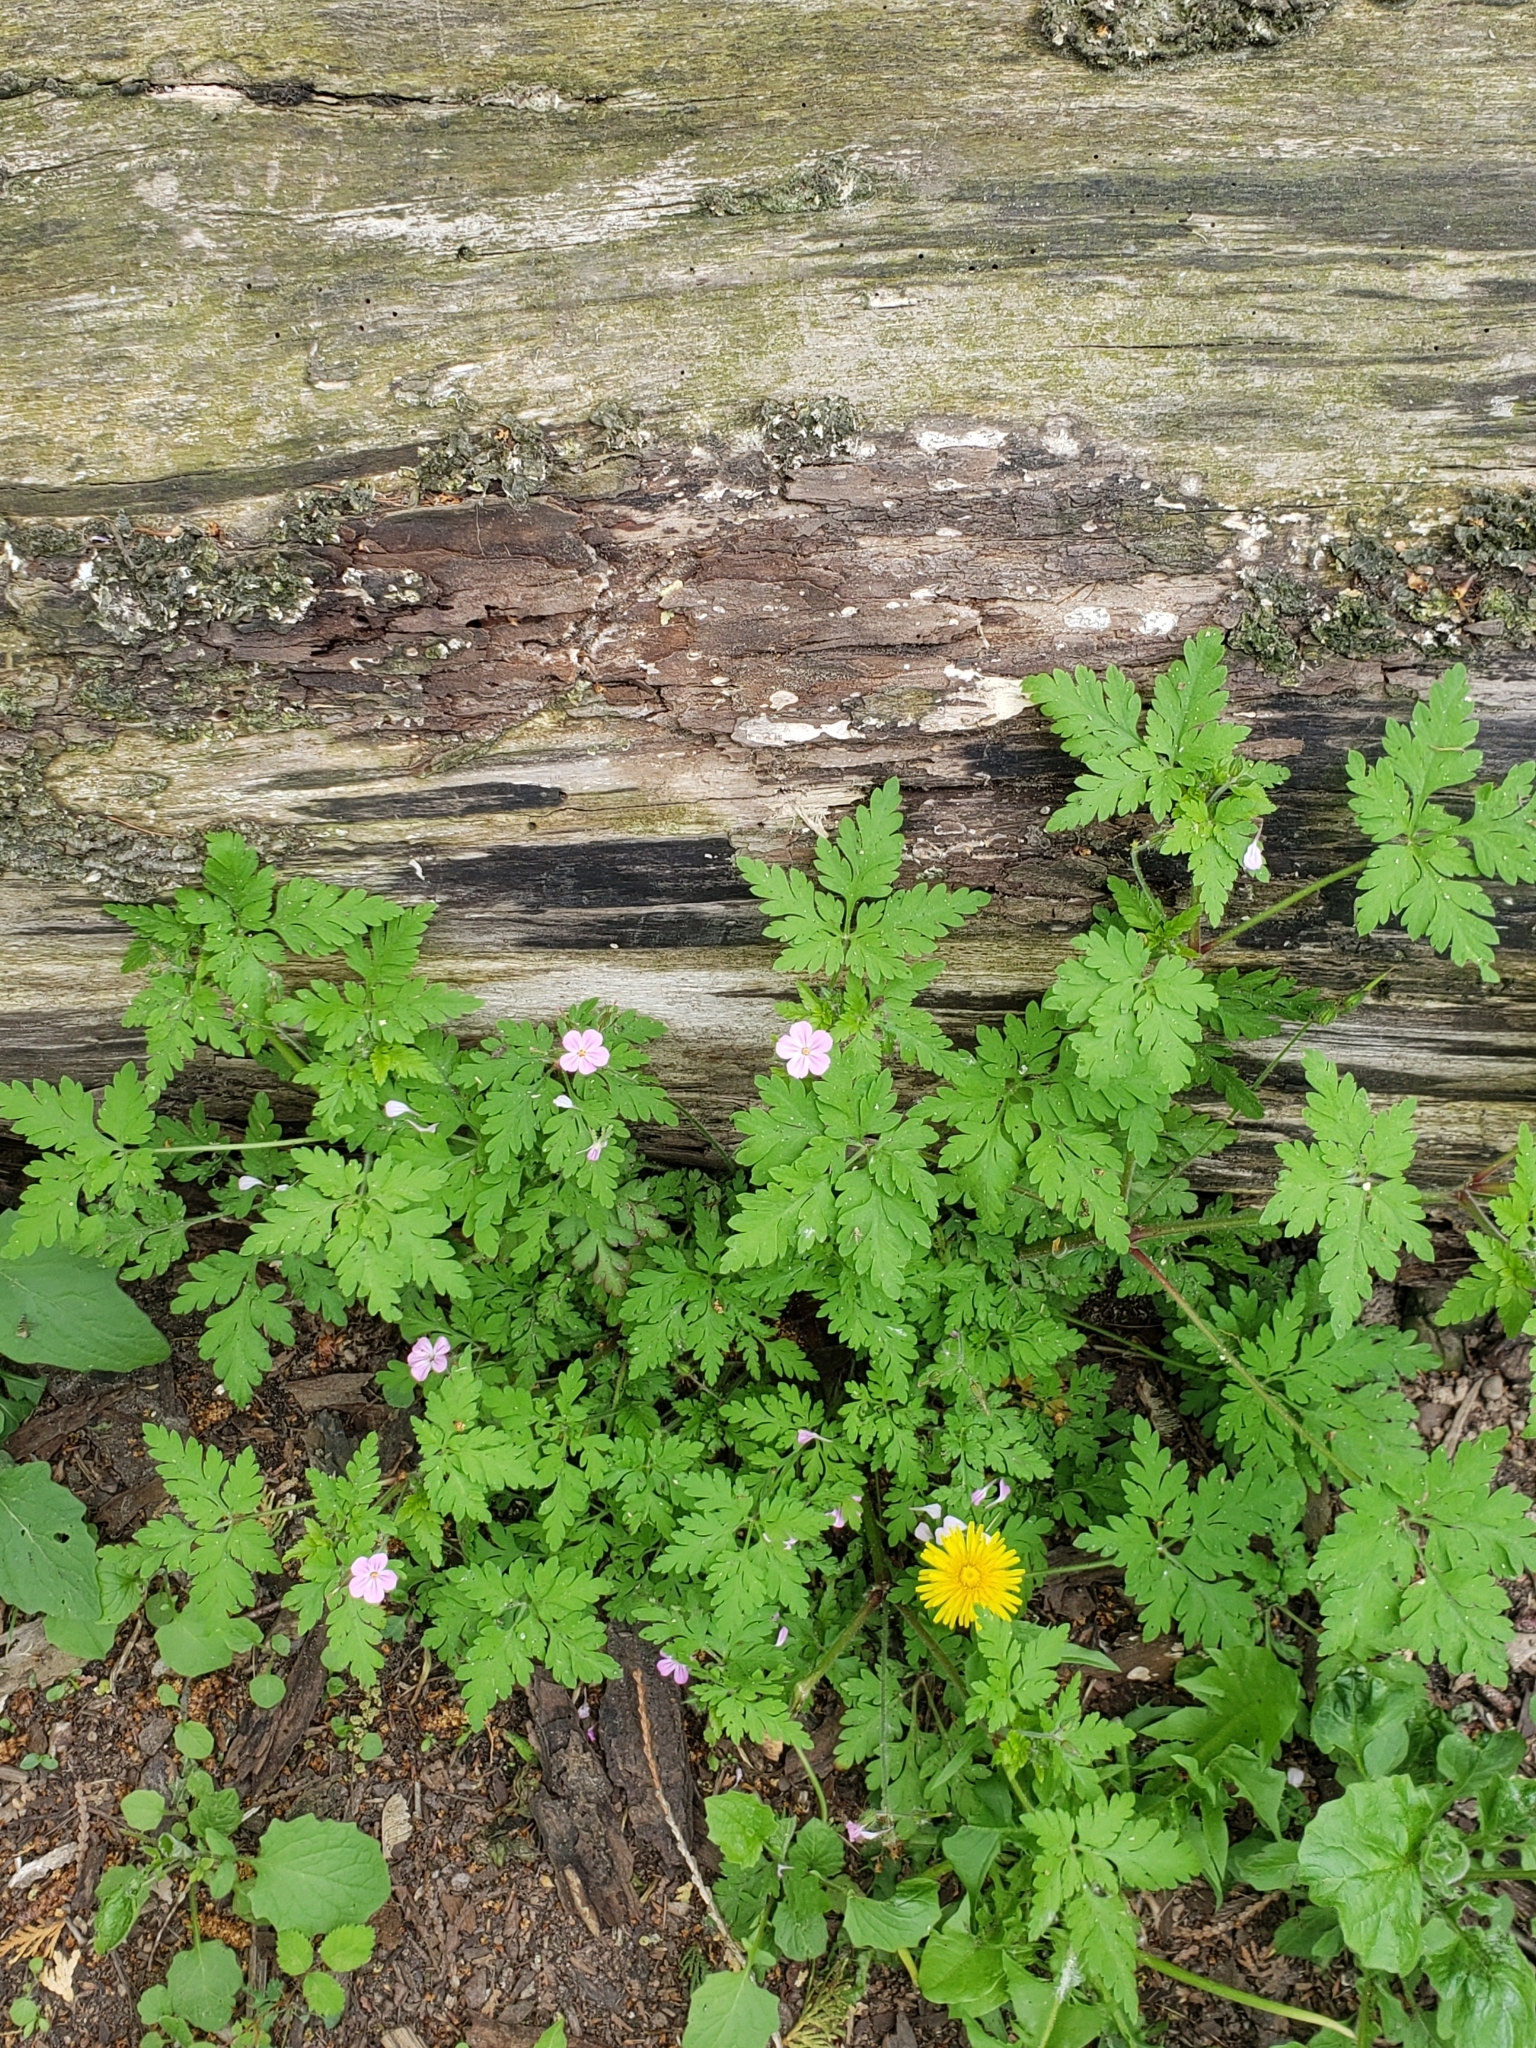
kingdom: Plantae
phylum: Tracheophyta
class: Magnoliopsida
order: Geraniales
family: Geraniaceae
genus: Geranium
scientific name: Geranium robertianum
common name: Herb-robert
